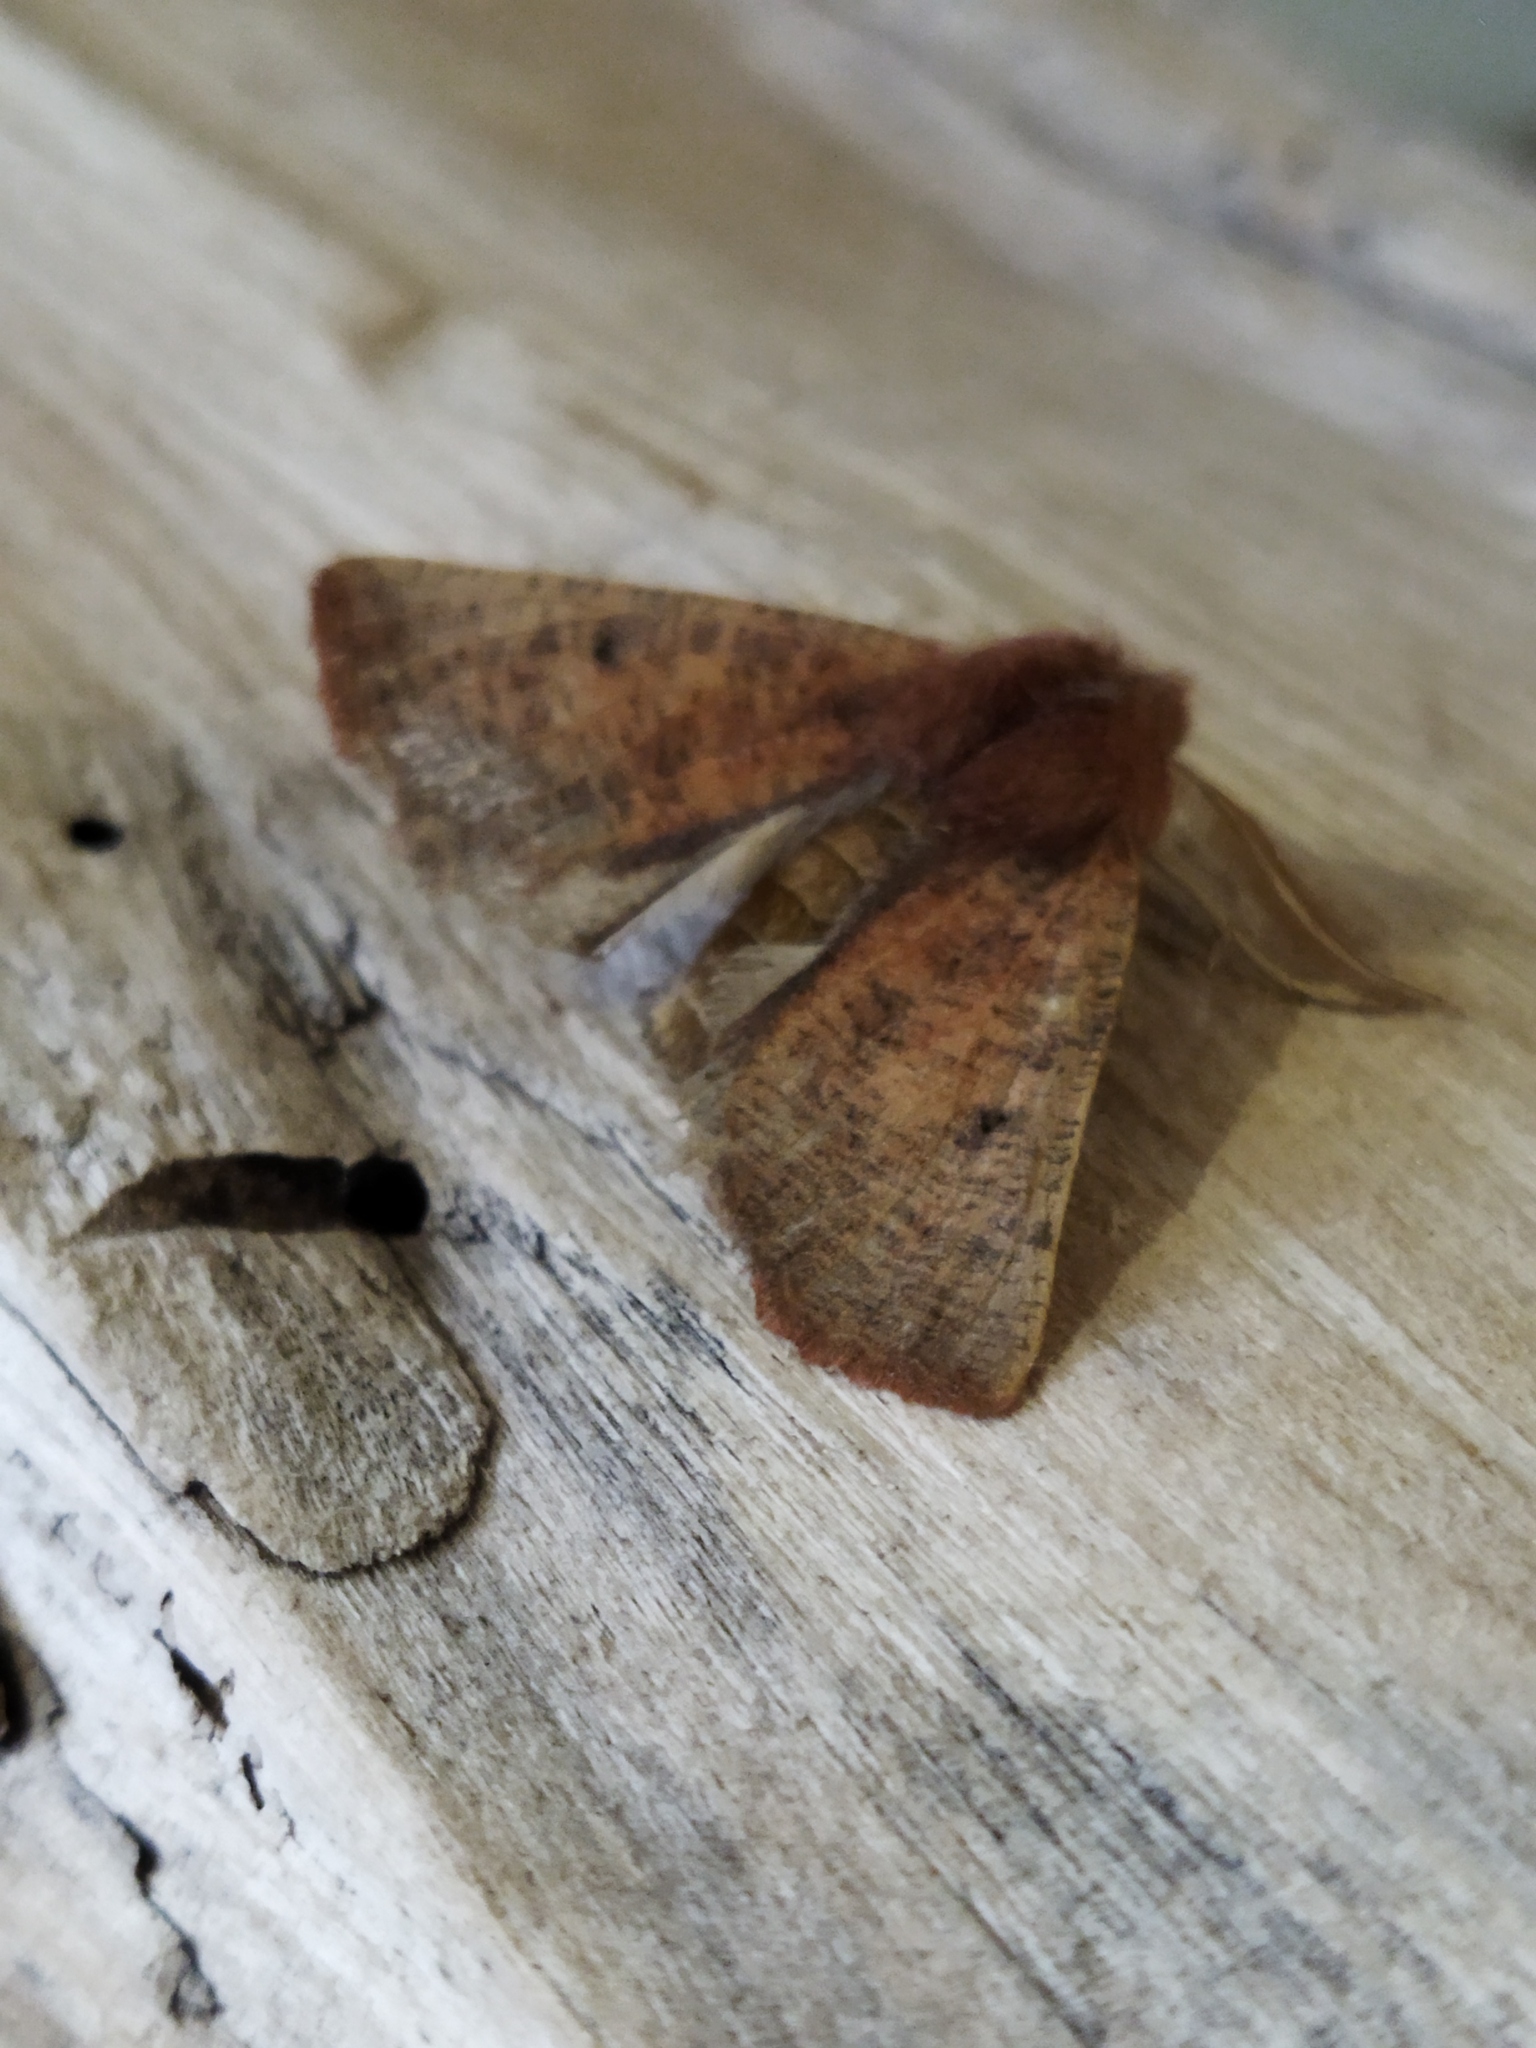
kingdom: Animalia
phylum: Arthropoda
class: Insecta
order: Lepidoptera
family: Geometridae
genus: Dasycorsa
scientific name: Dasycorsa modesta
